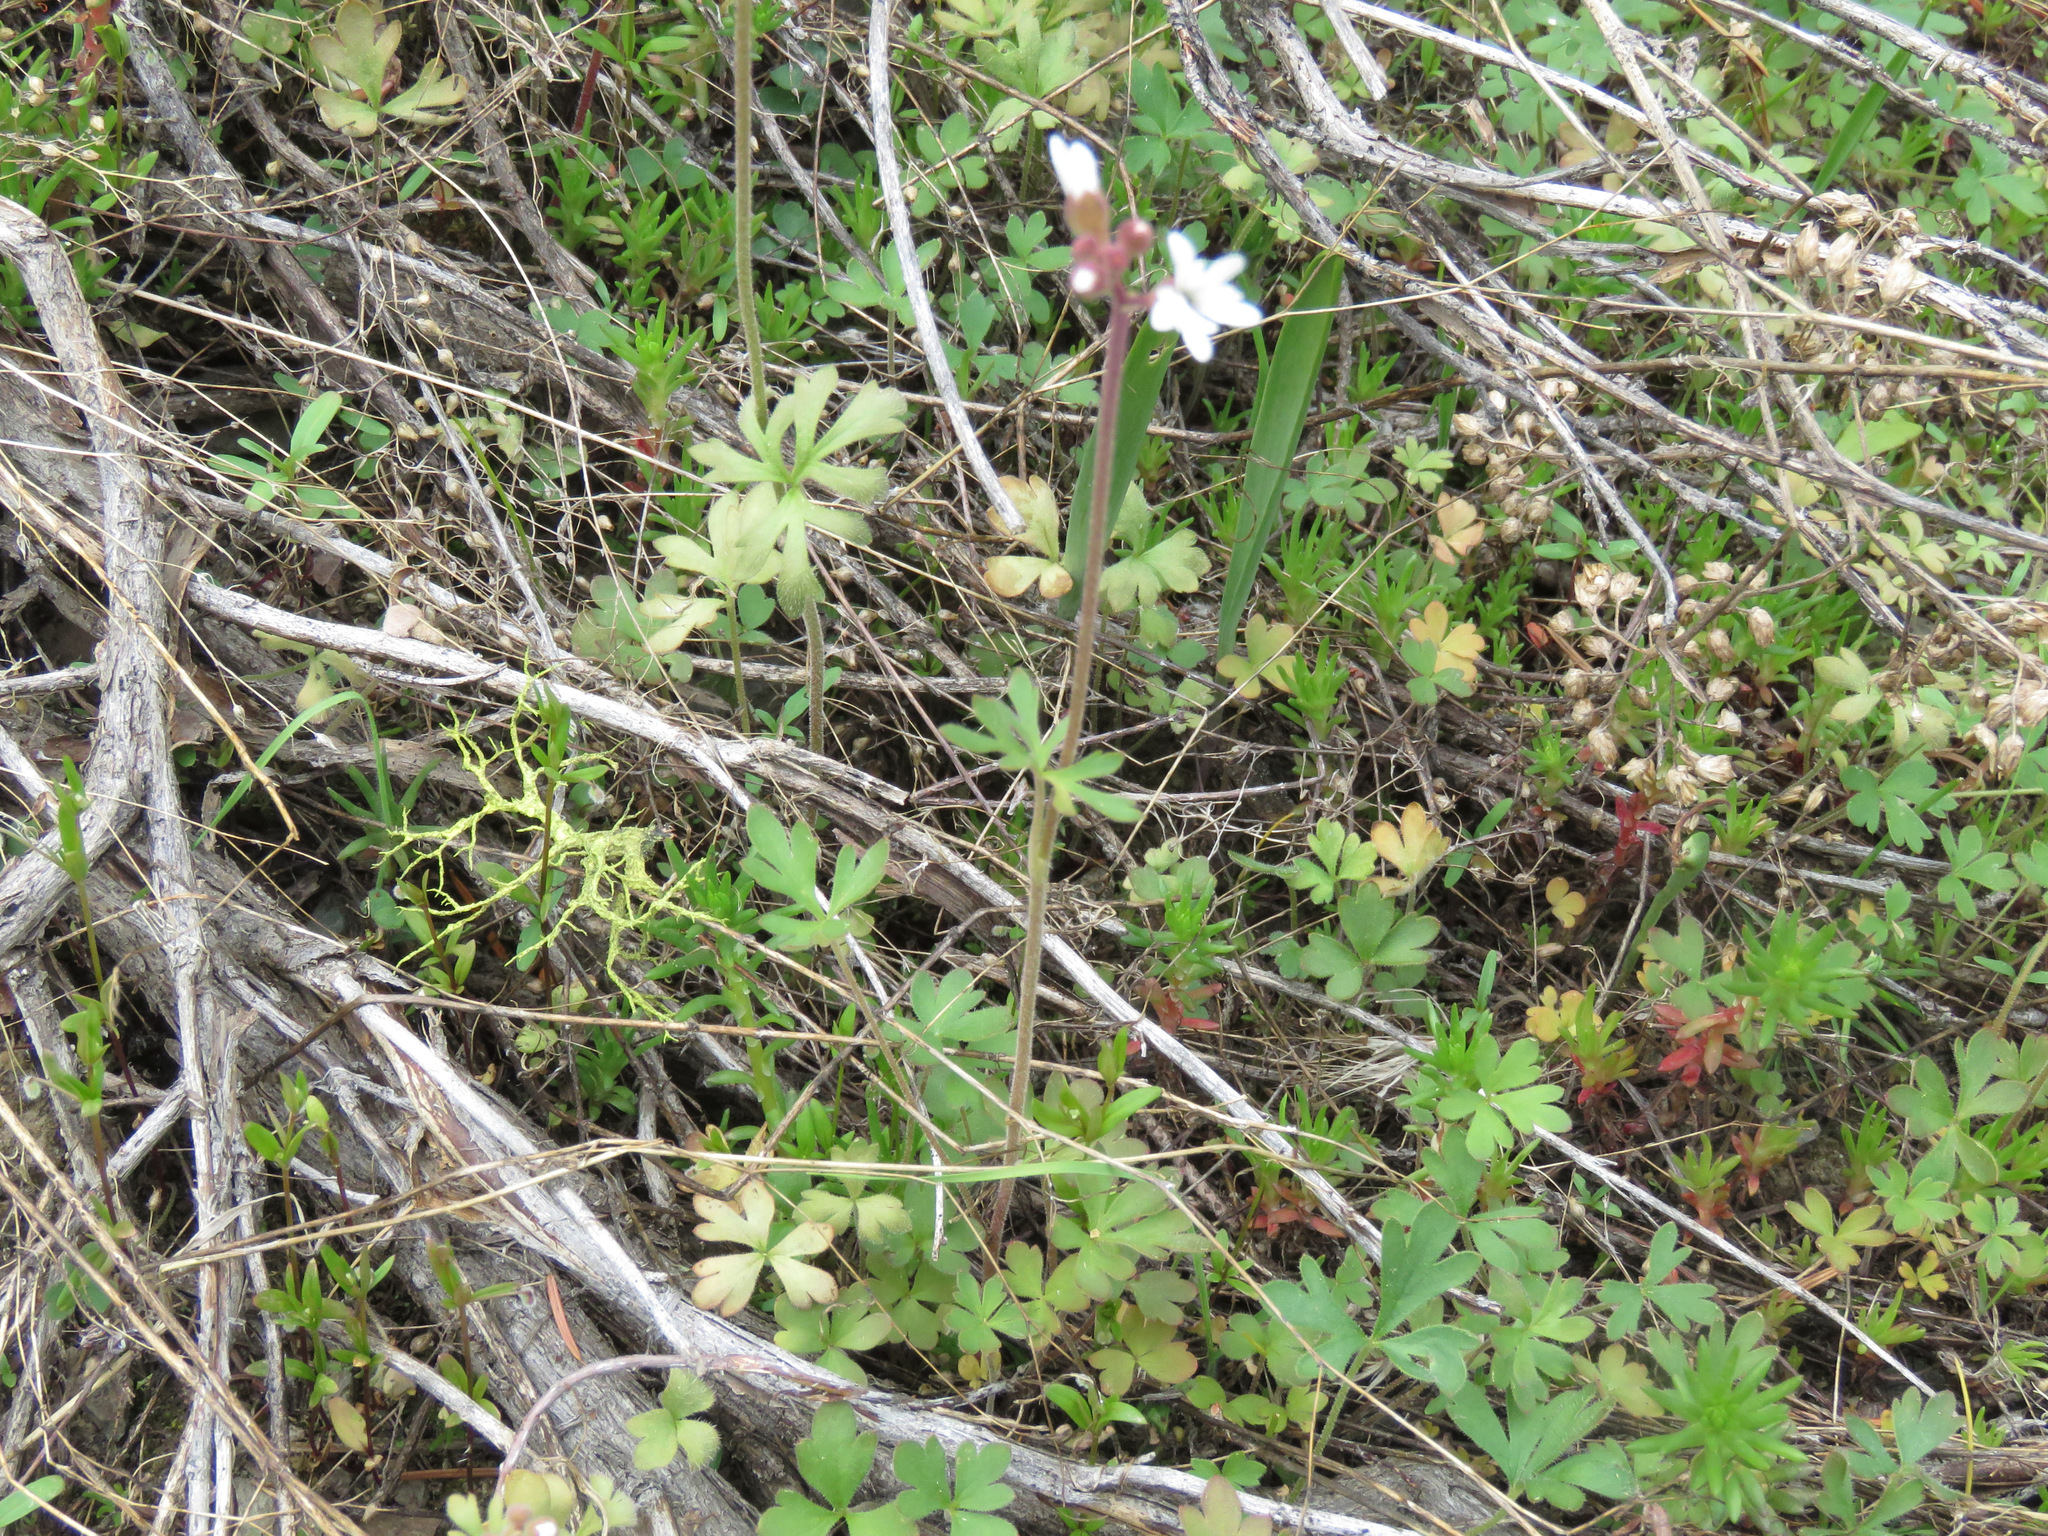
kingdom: Plantae
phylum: Tracheophyta
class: Magnoliopsida
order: Saxifragales
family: Saxifragaceae
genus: Lithophragma
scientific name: Lithophragma parviflorum
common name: Small-flowered fringe-cup
